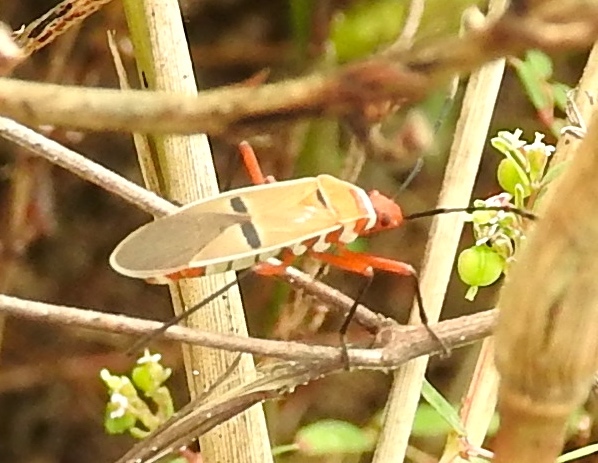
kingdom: Animalia
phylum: Arthropoda
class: Insecta
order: Hemiptera
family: Pyrrhocoridae
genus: Dysdercus
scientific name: Dysdercus
